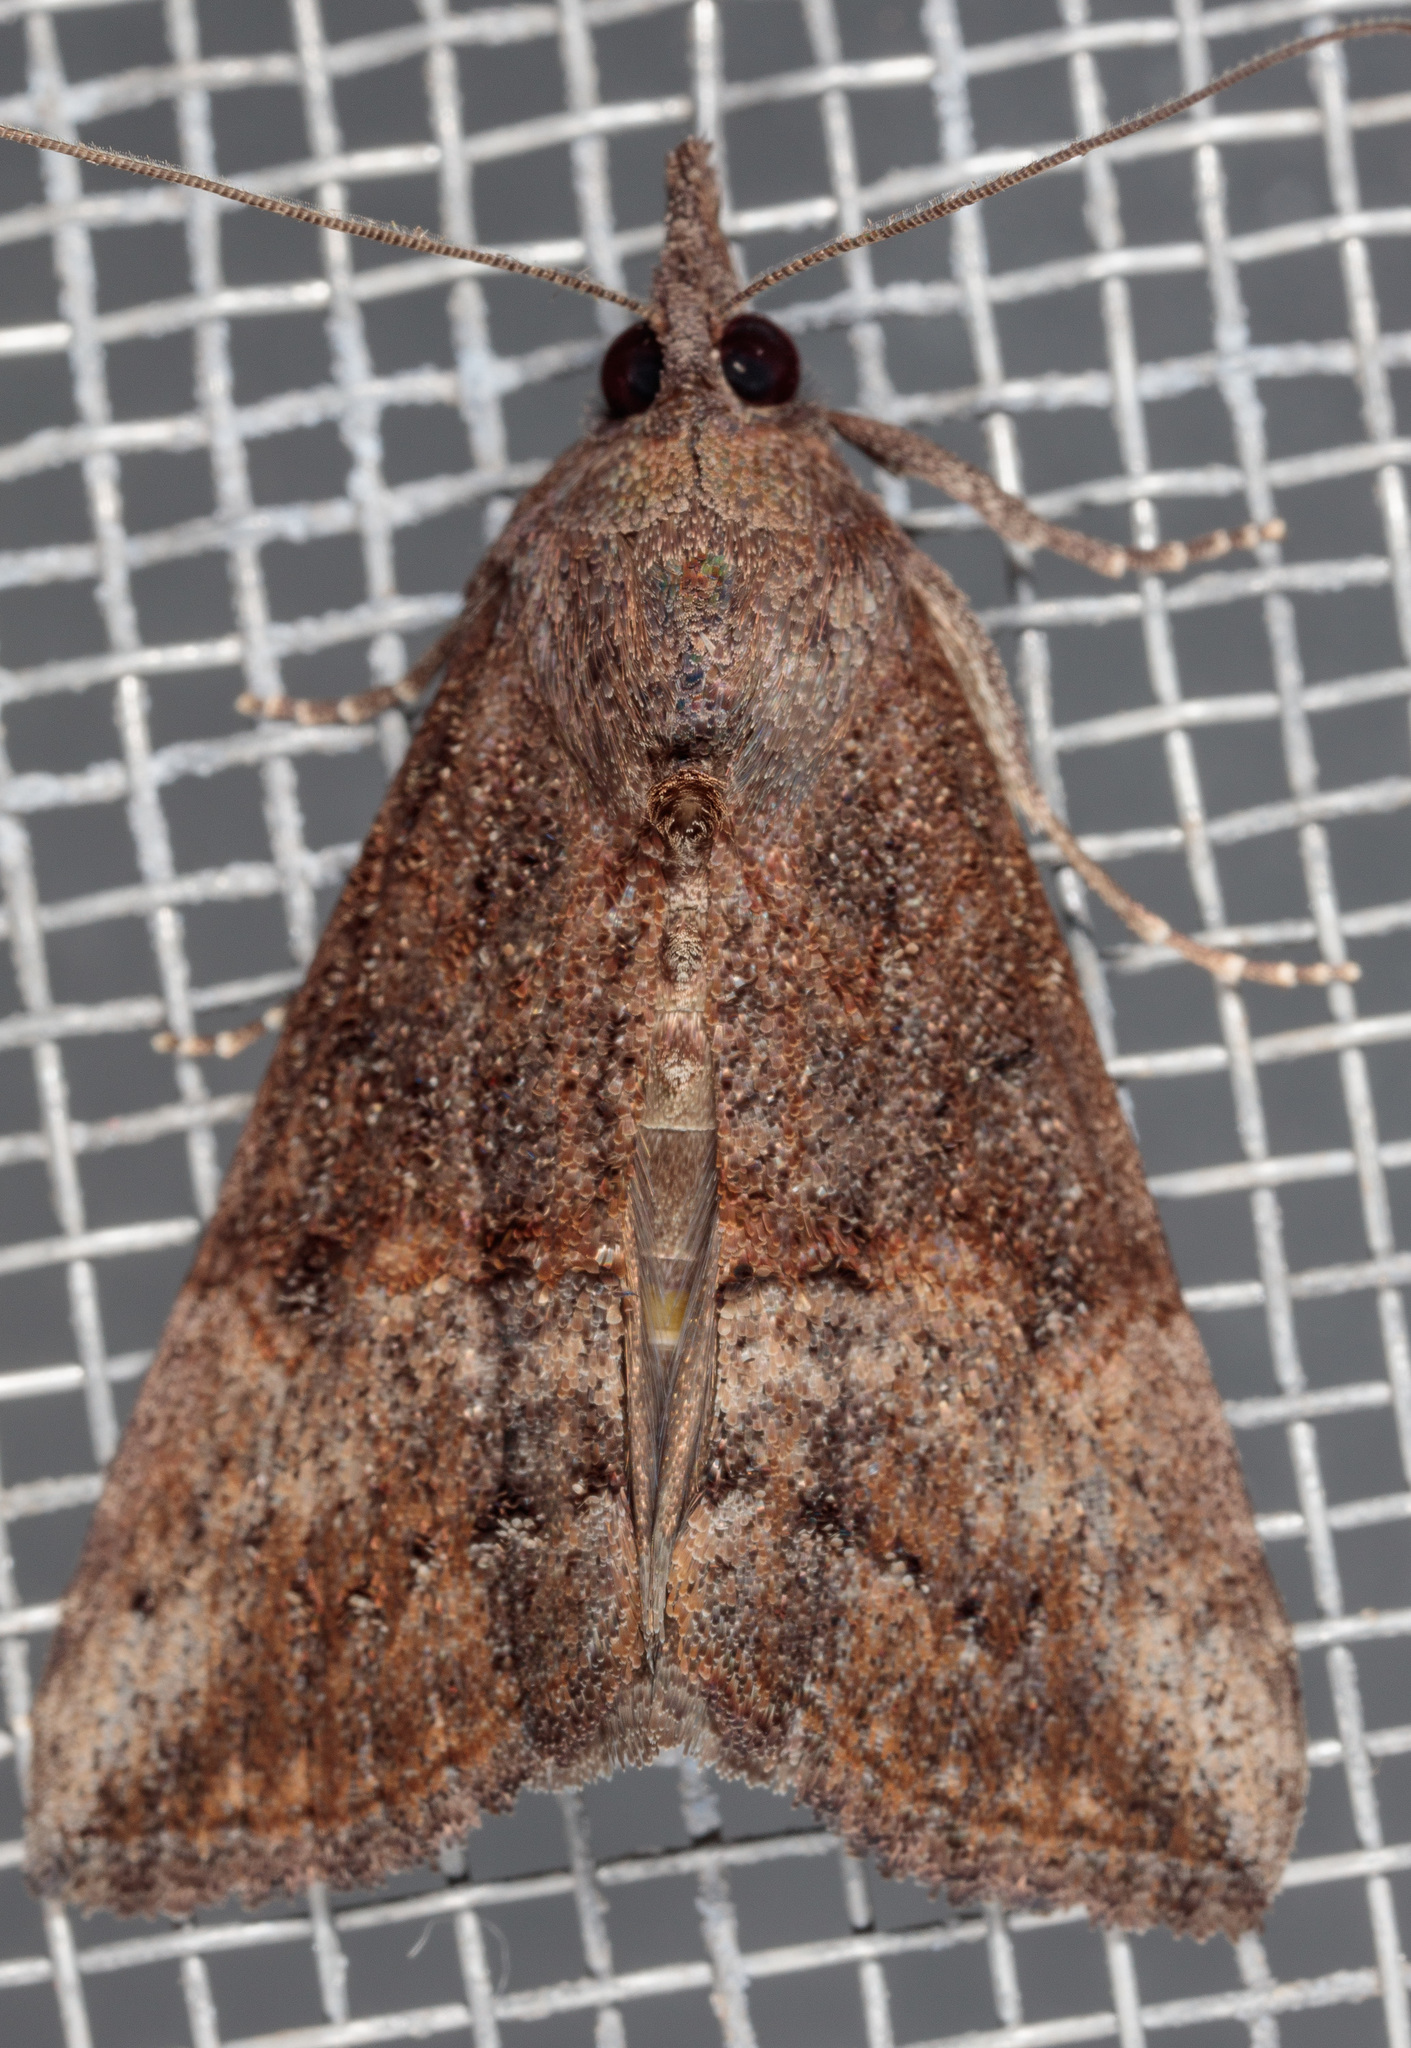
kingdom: Animalia
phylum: Arthropoda
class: Insecta
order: Lepidoptera
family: Erebidae
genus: Hypena
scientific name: Hypena scabra
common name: Green cloverworm
